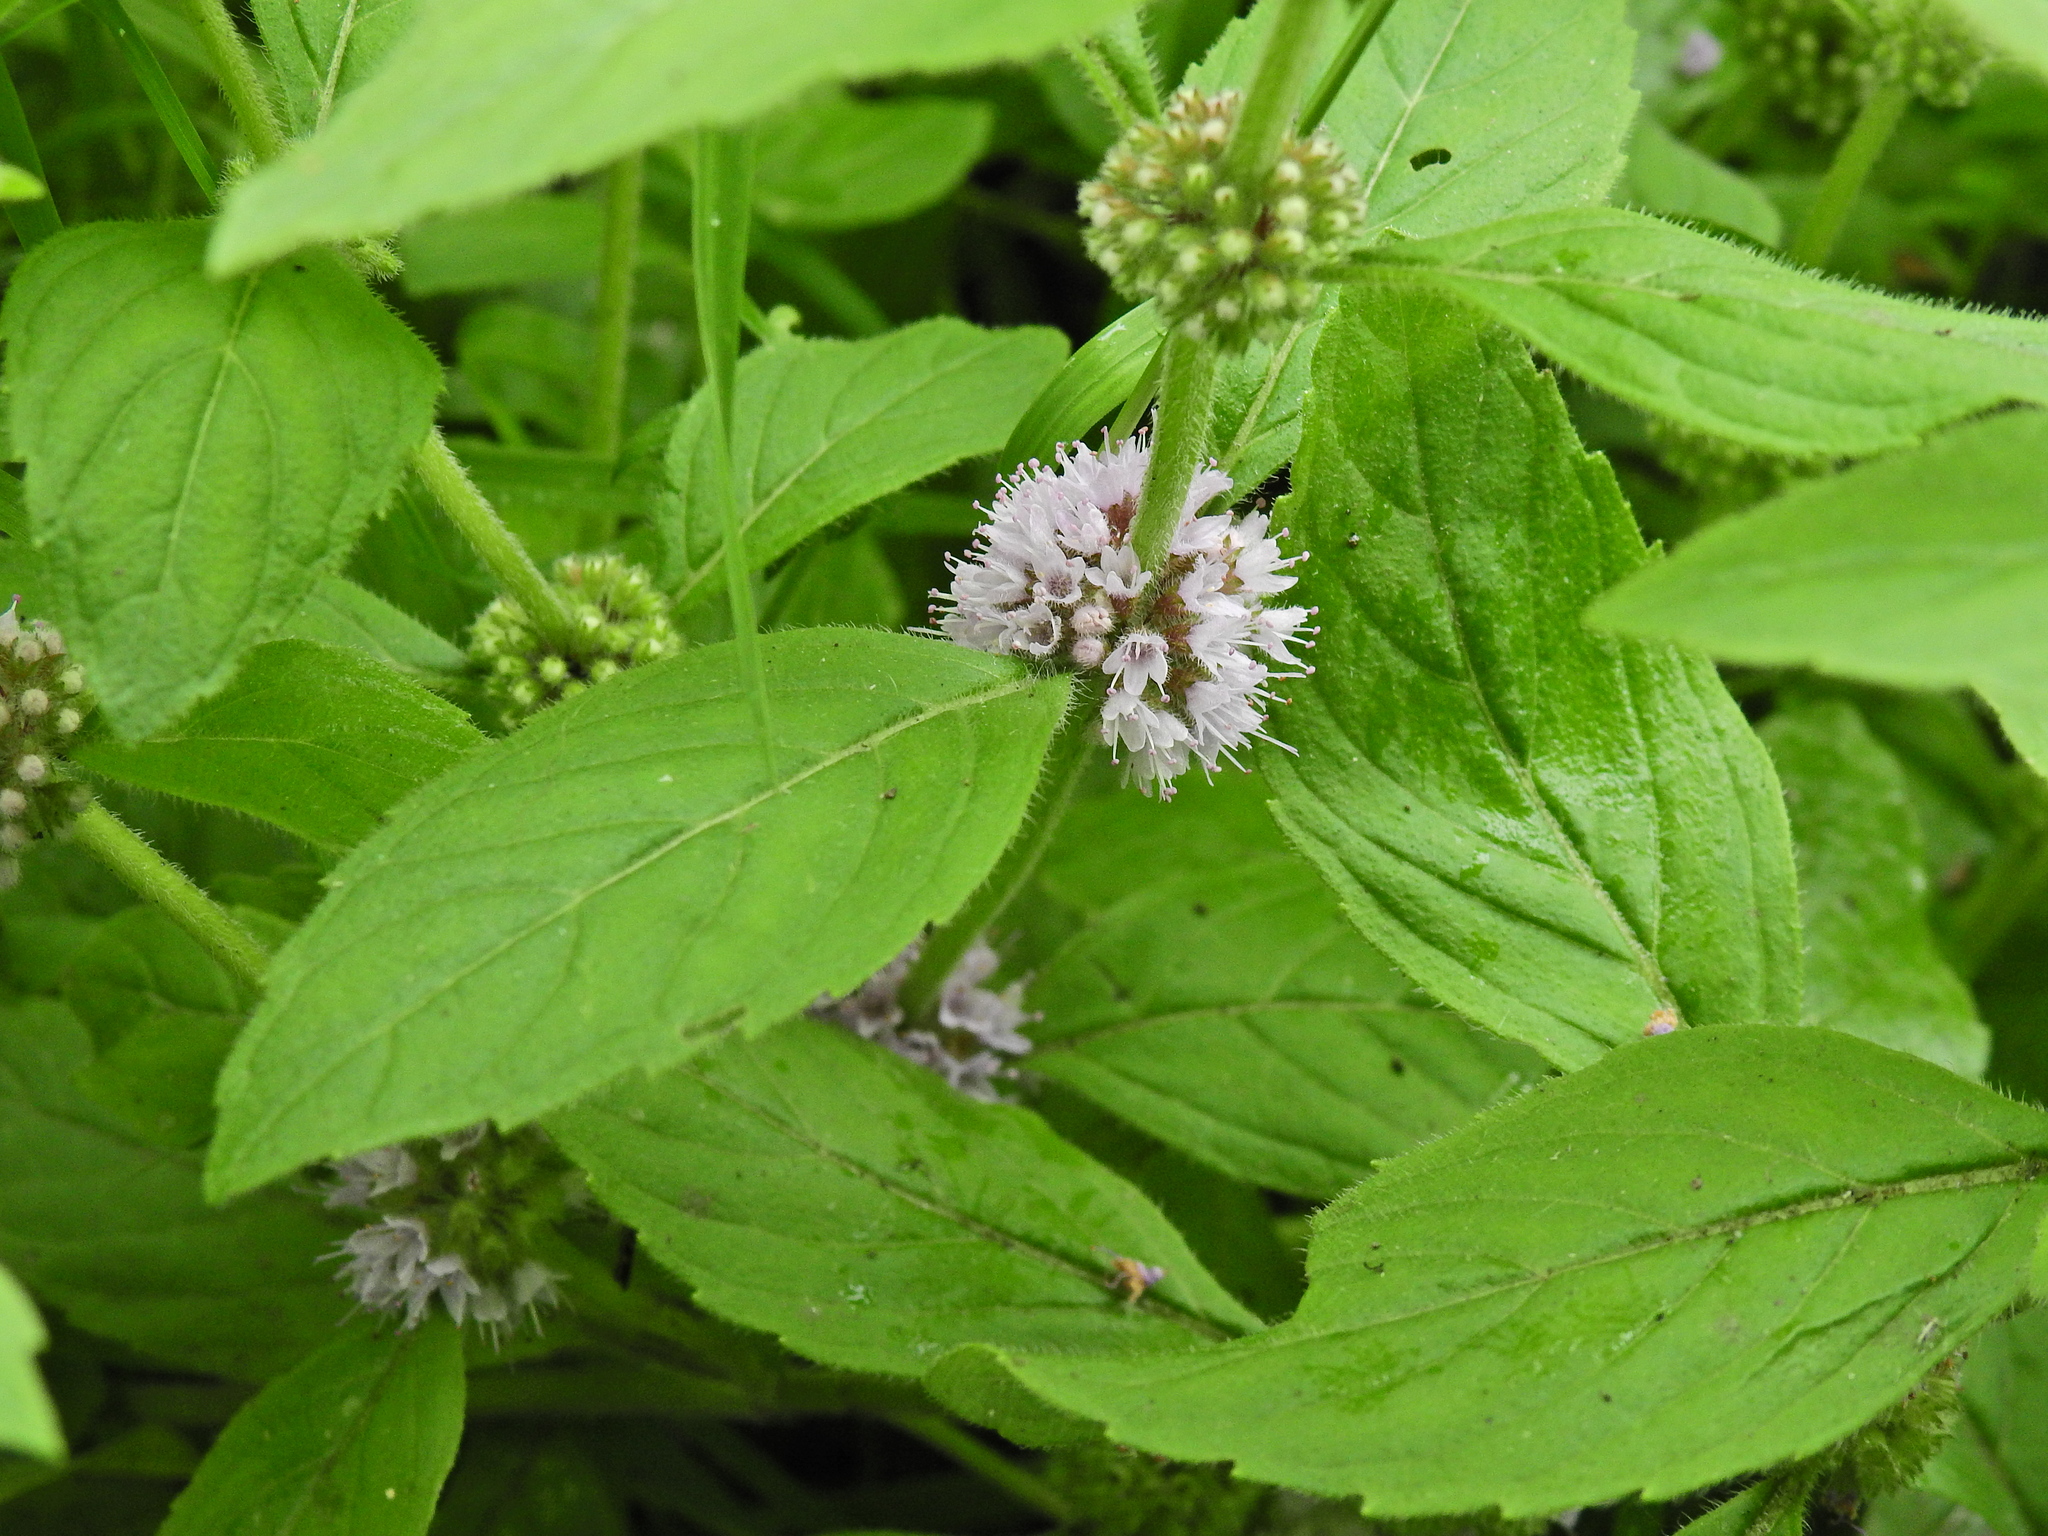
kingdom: Plantae
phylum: Tracheophyta
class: Magnoliopsida
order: Lamiales
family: Lamiaceae
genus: Mentha
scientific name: Mentha arvensis
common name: Corn mint
